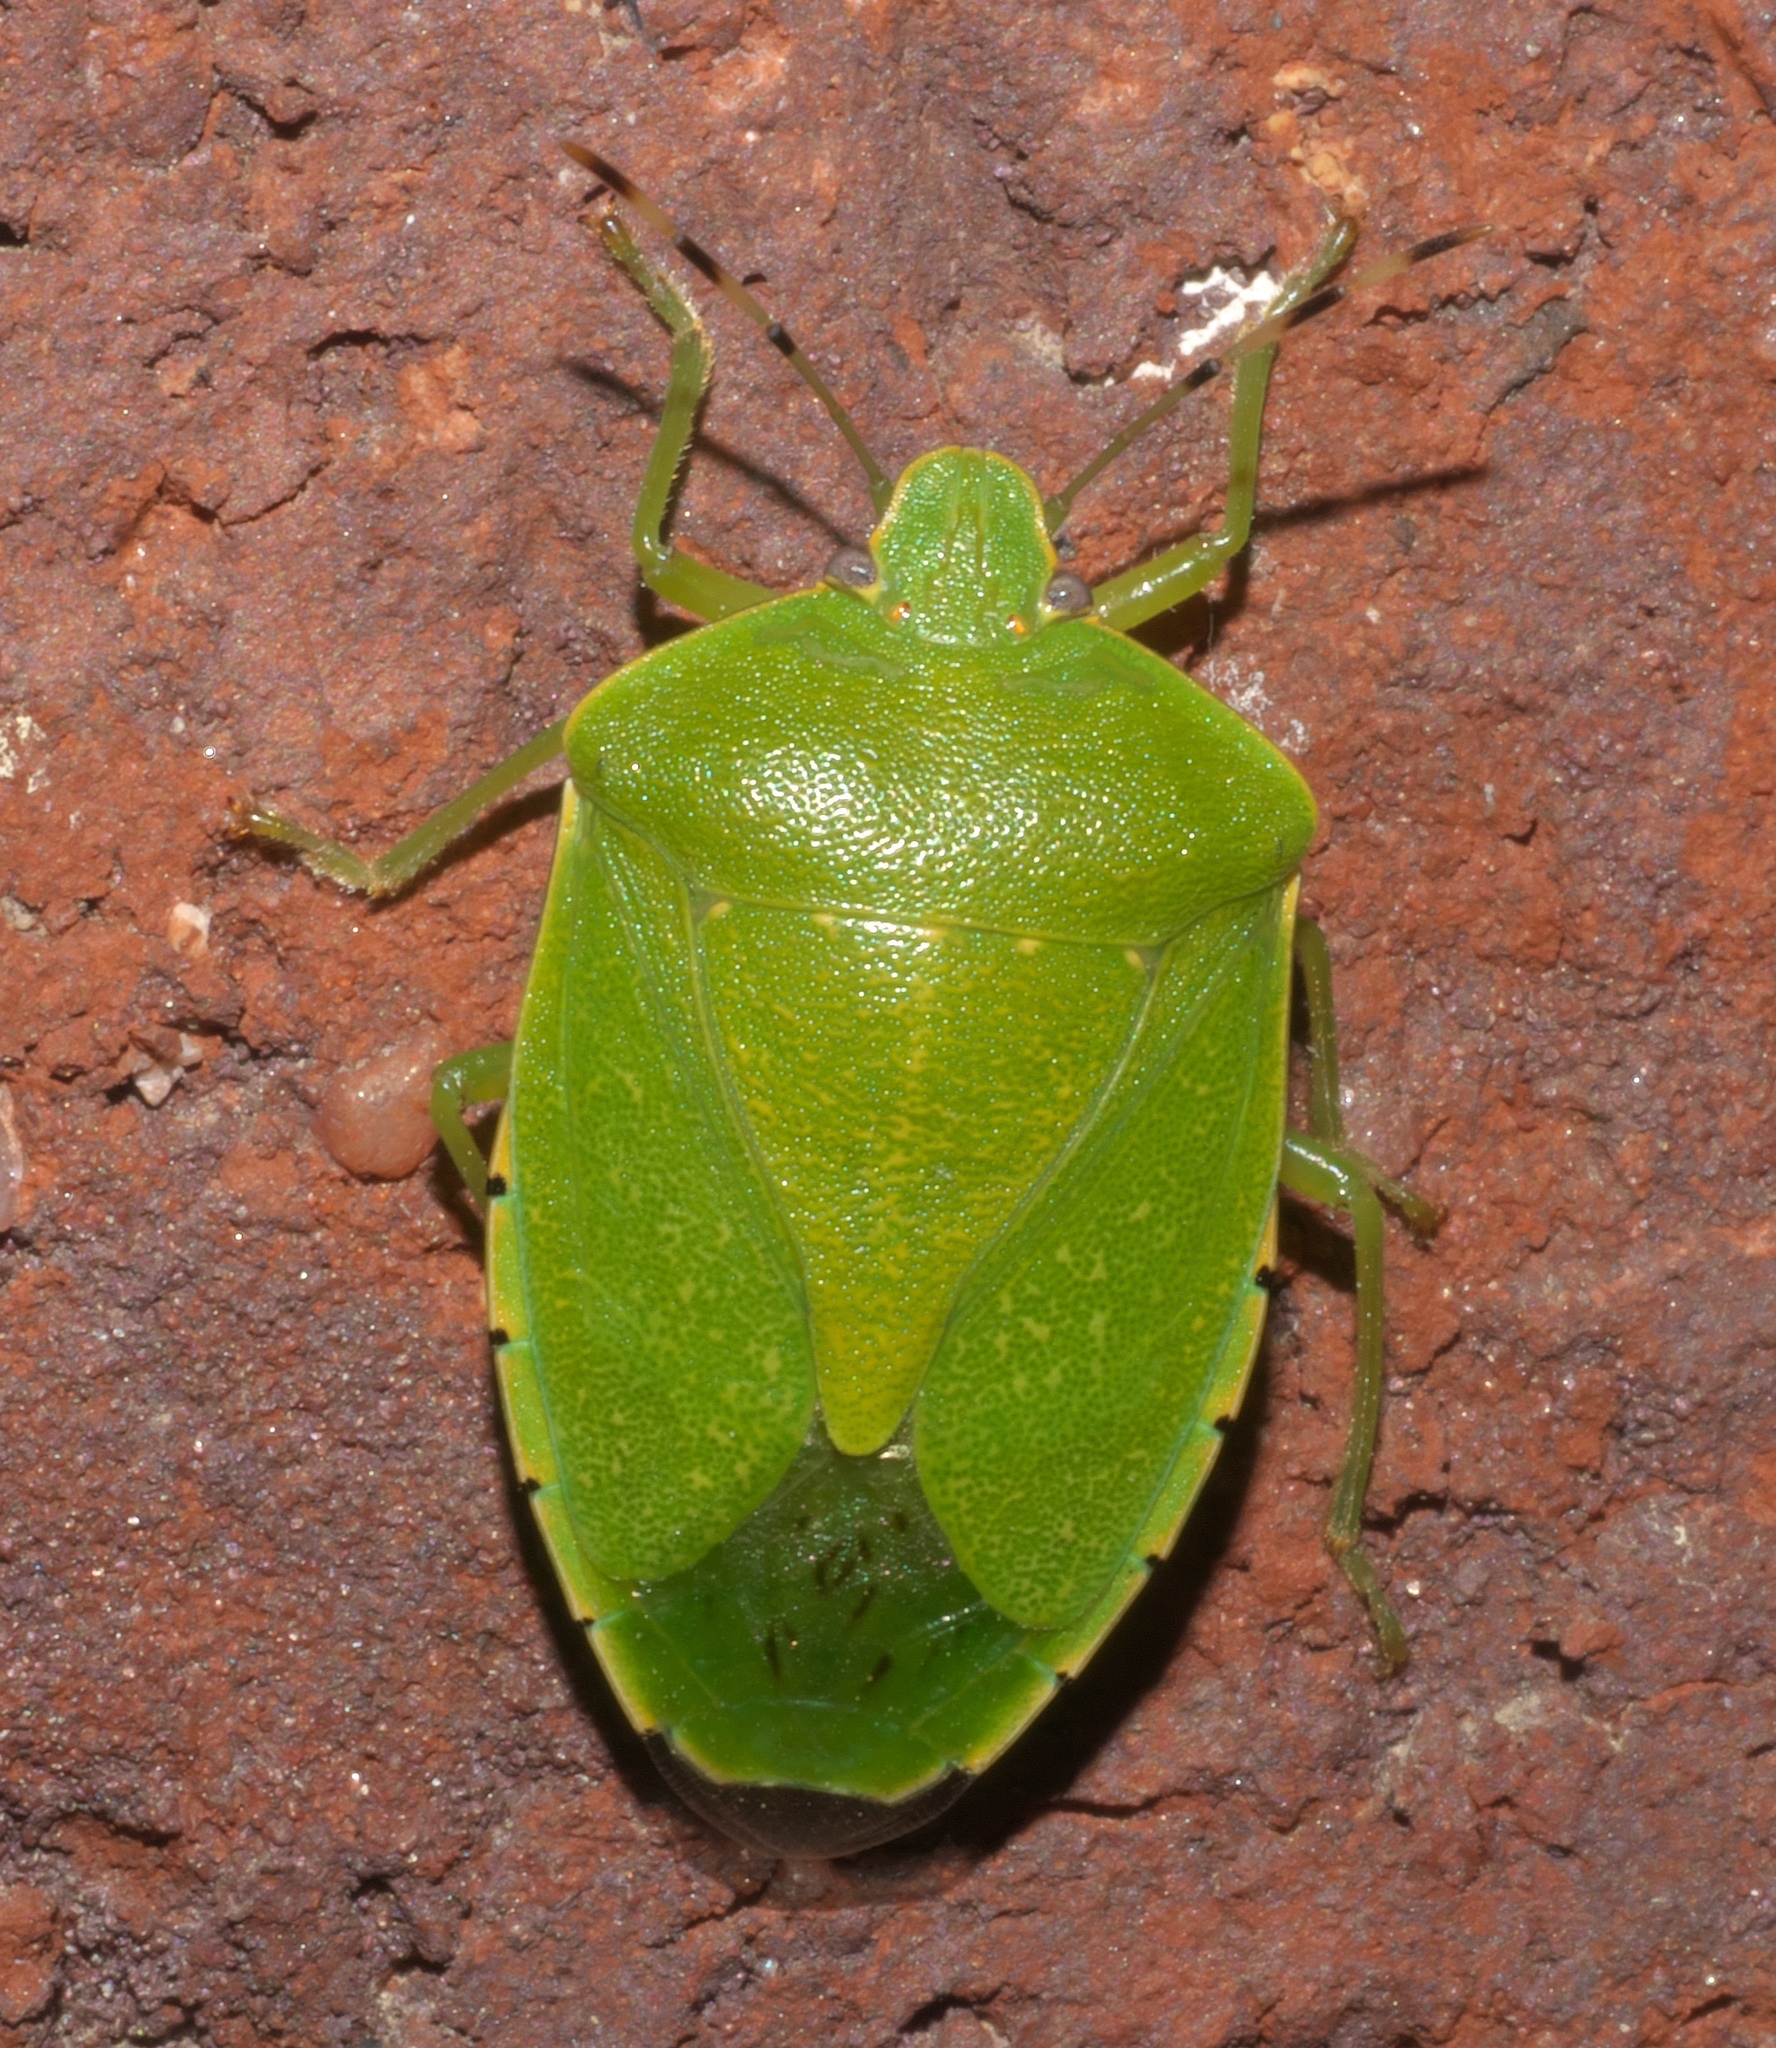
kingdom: Animalia
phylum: Arthropoda
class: Insecta
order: Hemiptera
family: Pentatomidae
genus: Chinavia
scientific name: Chinavia hilaris
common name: Green stink bug
